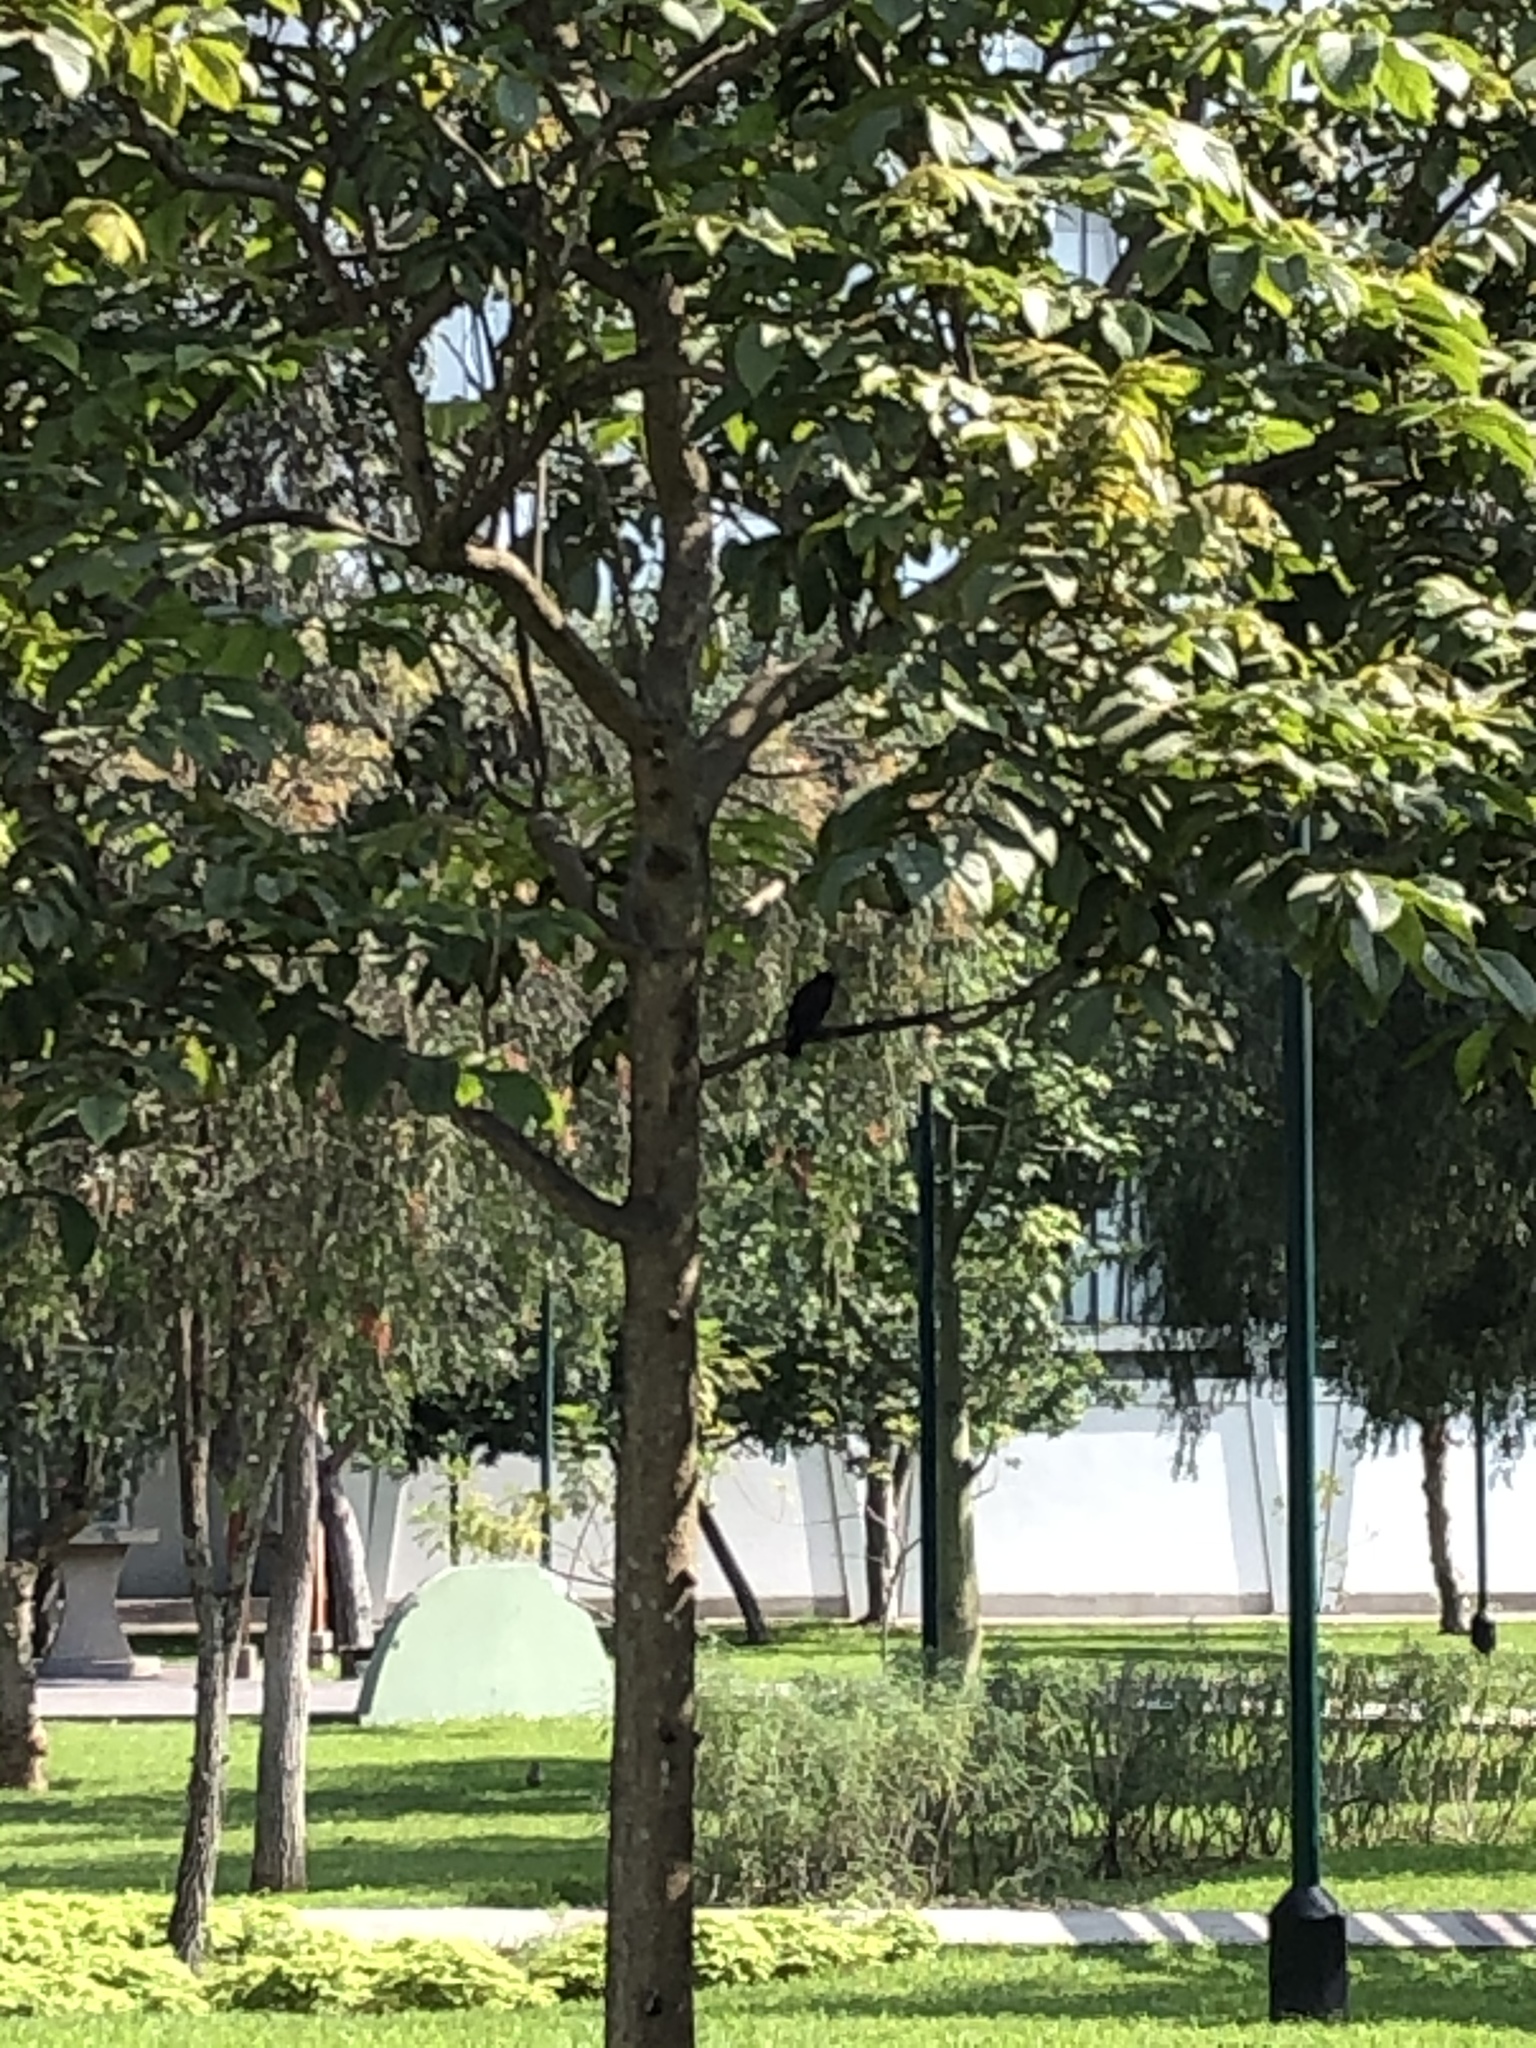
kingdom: Animalia
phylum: Chordata
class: Aves
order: Passeriformes
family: Tyrannidae
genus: Pyrocephalus
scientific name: Pyrocephalus rubinus
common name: Vermilion flycatcher
